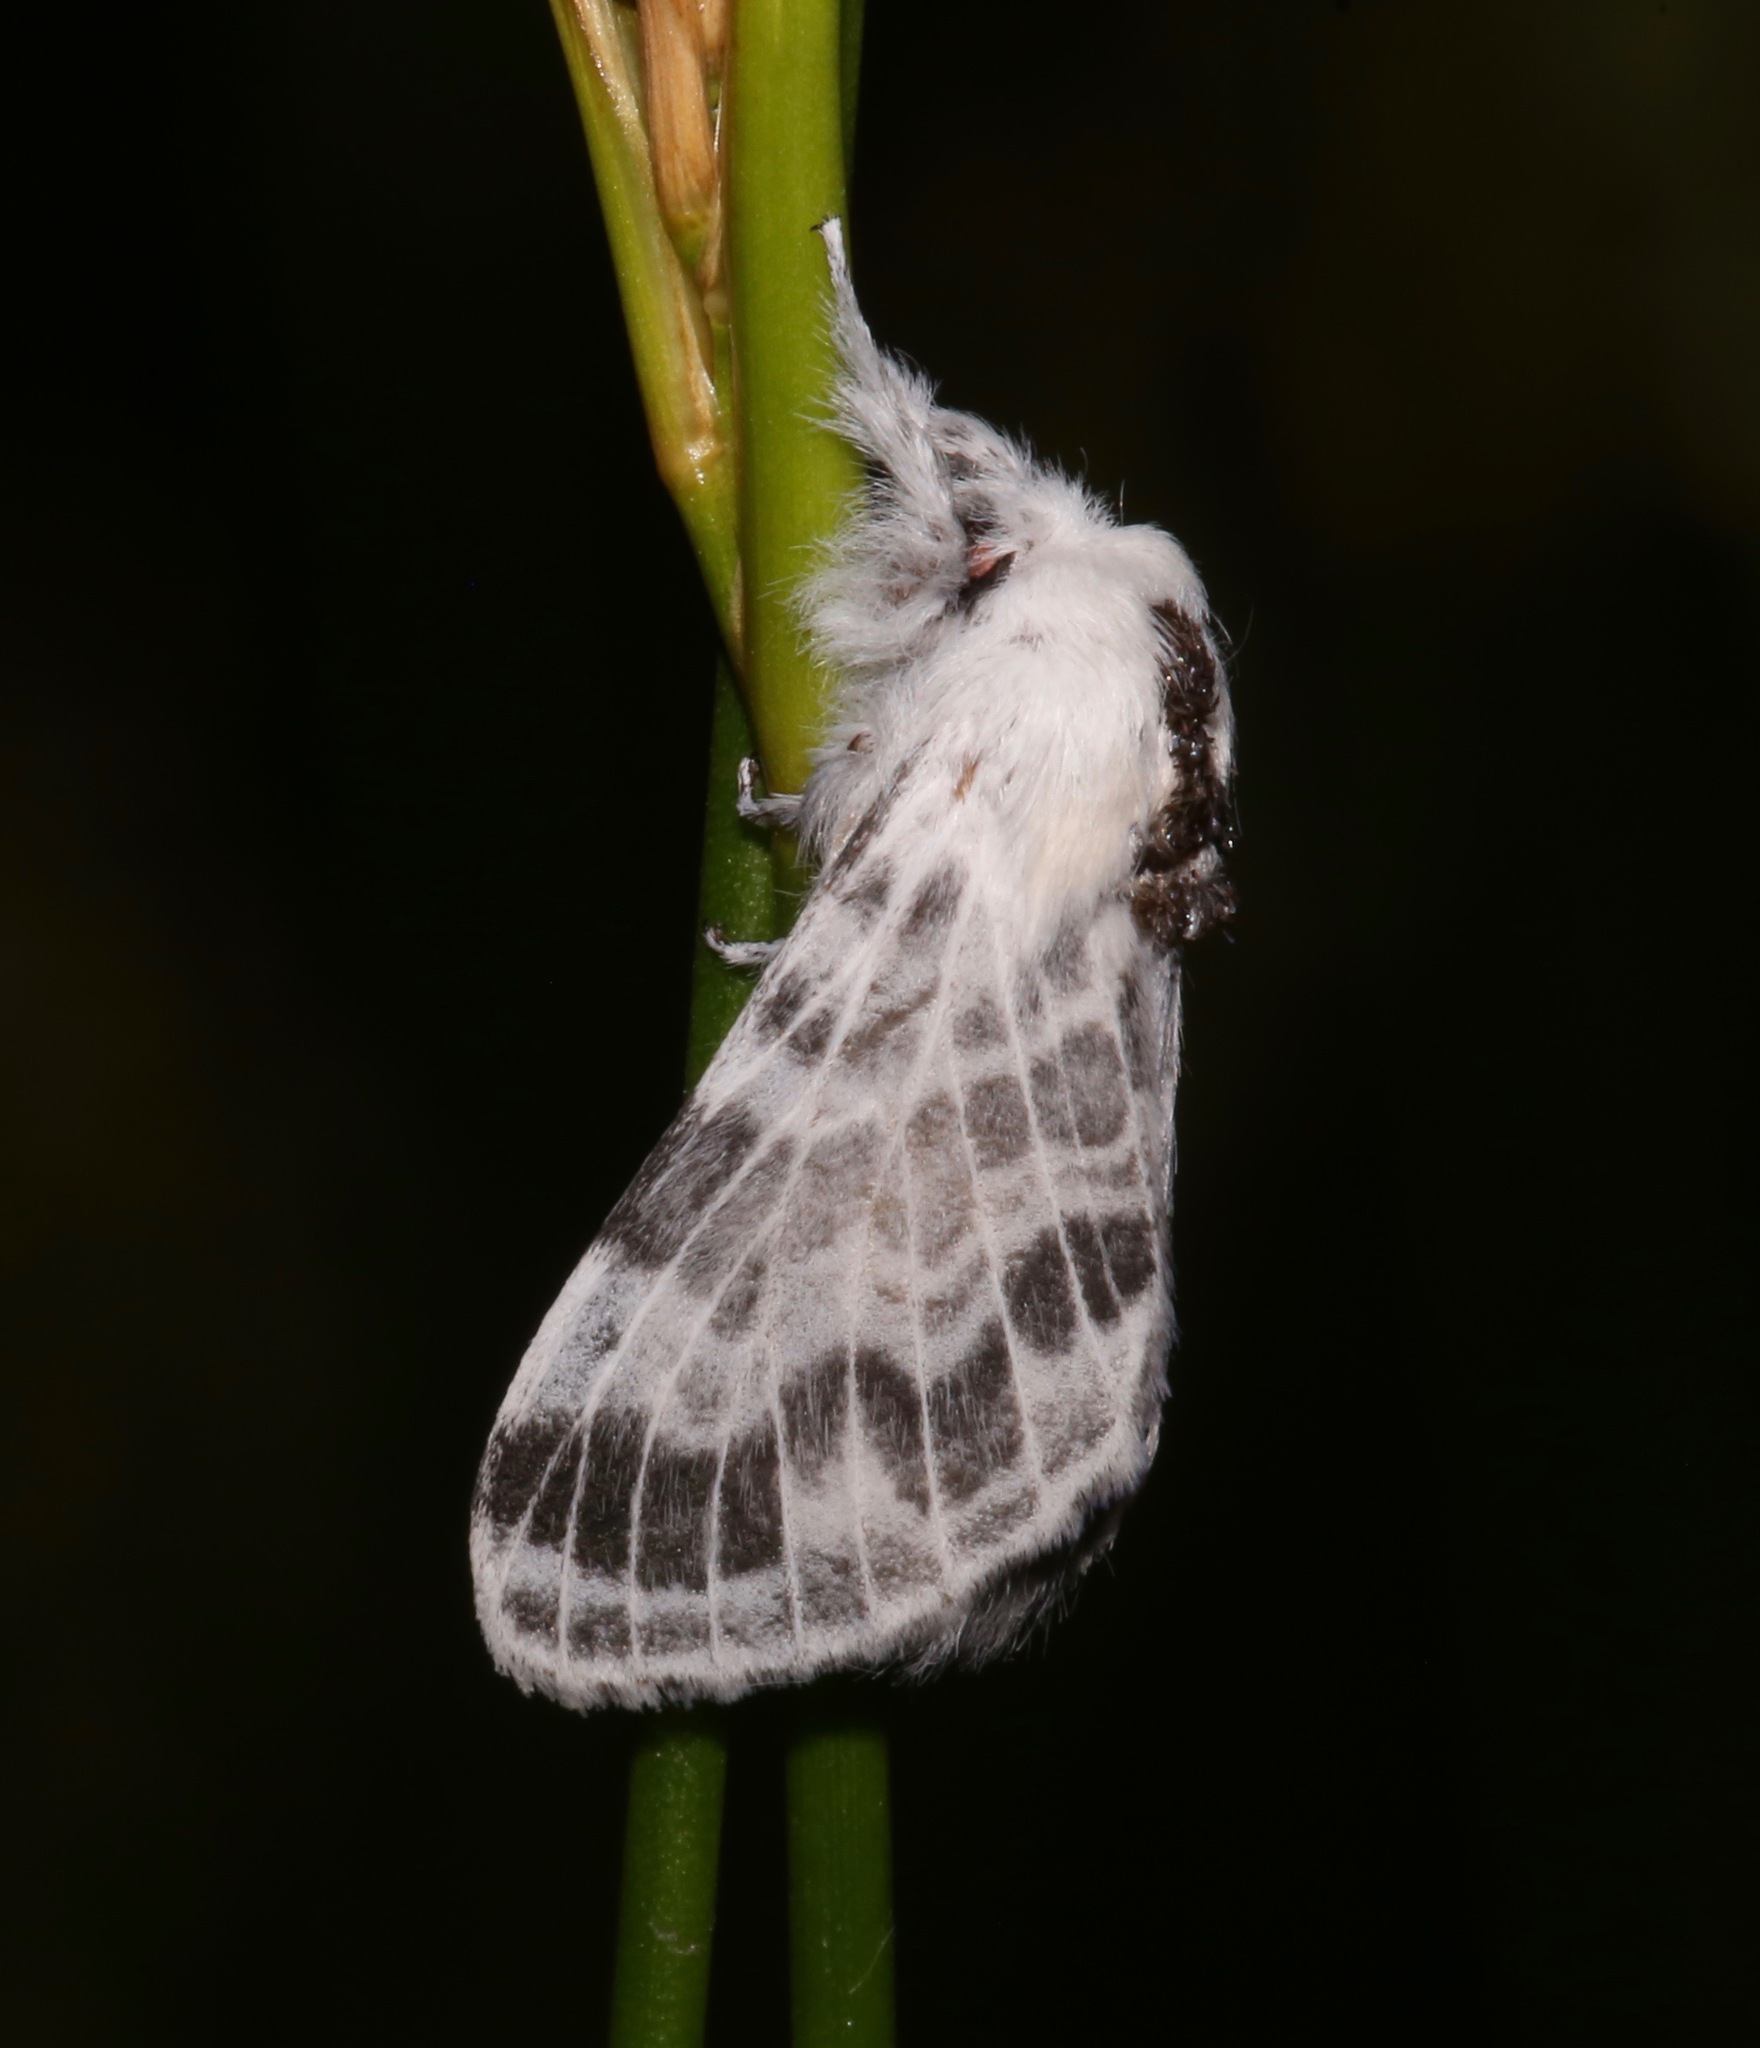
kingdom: Animalia
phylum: Arthropoda
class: Insecta
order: Lepidoptera
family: Lasiocampidae
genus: Tolype
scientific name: Tolype notialis
